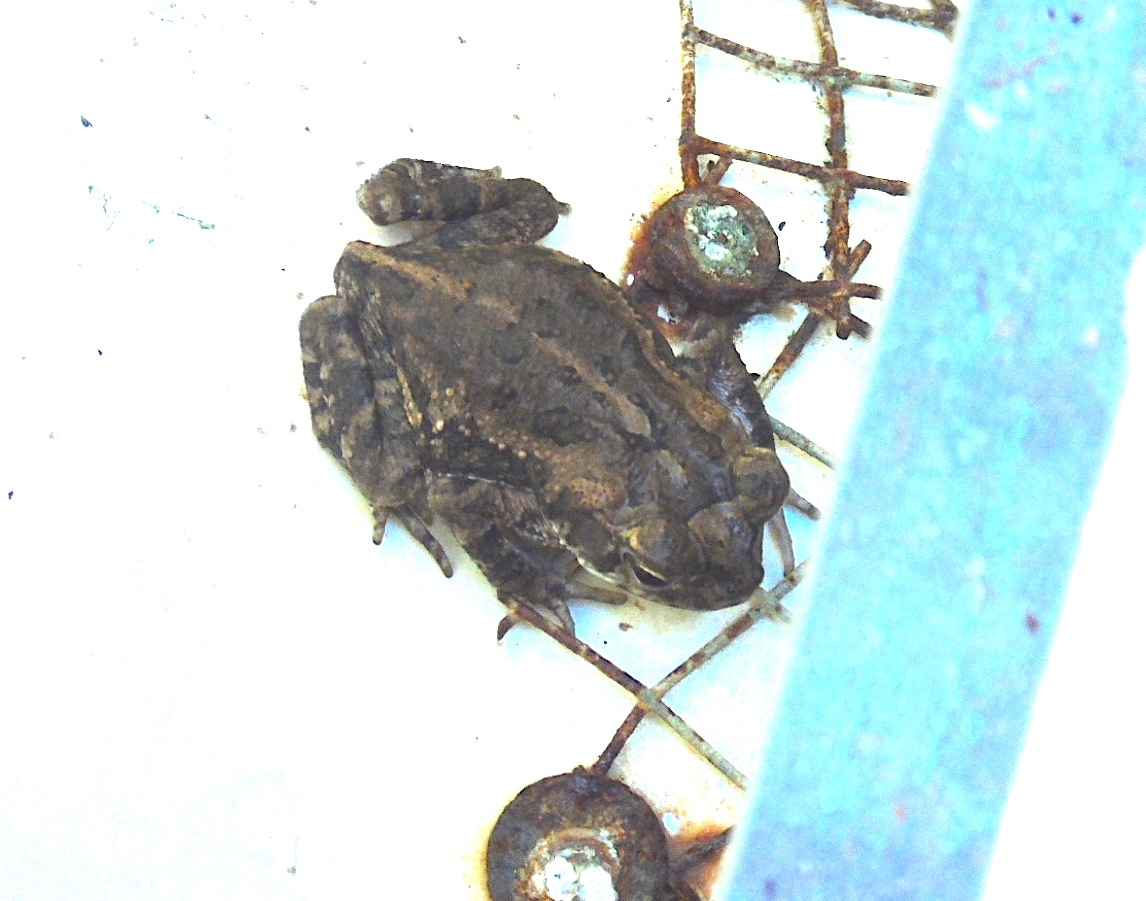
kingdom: Animalia
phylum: Chordata
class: Amphibia
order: Anura
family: Bufonidae
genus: Incilius
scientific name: Incilius mazatlanensis
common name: Sinaloa toad
